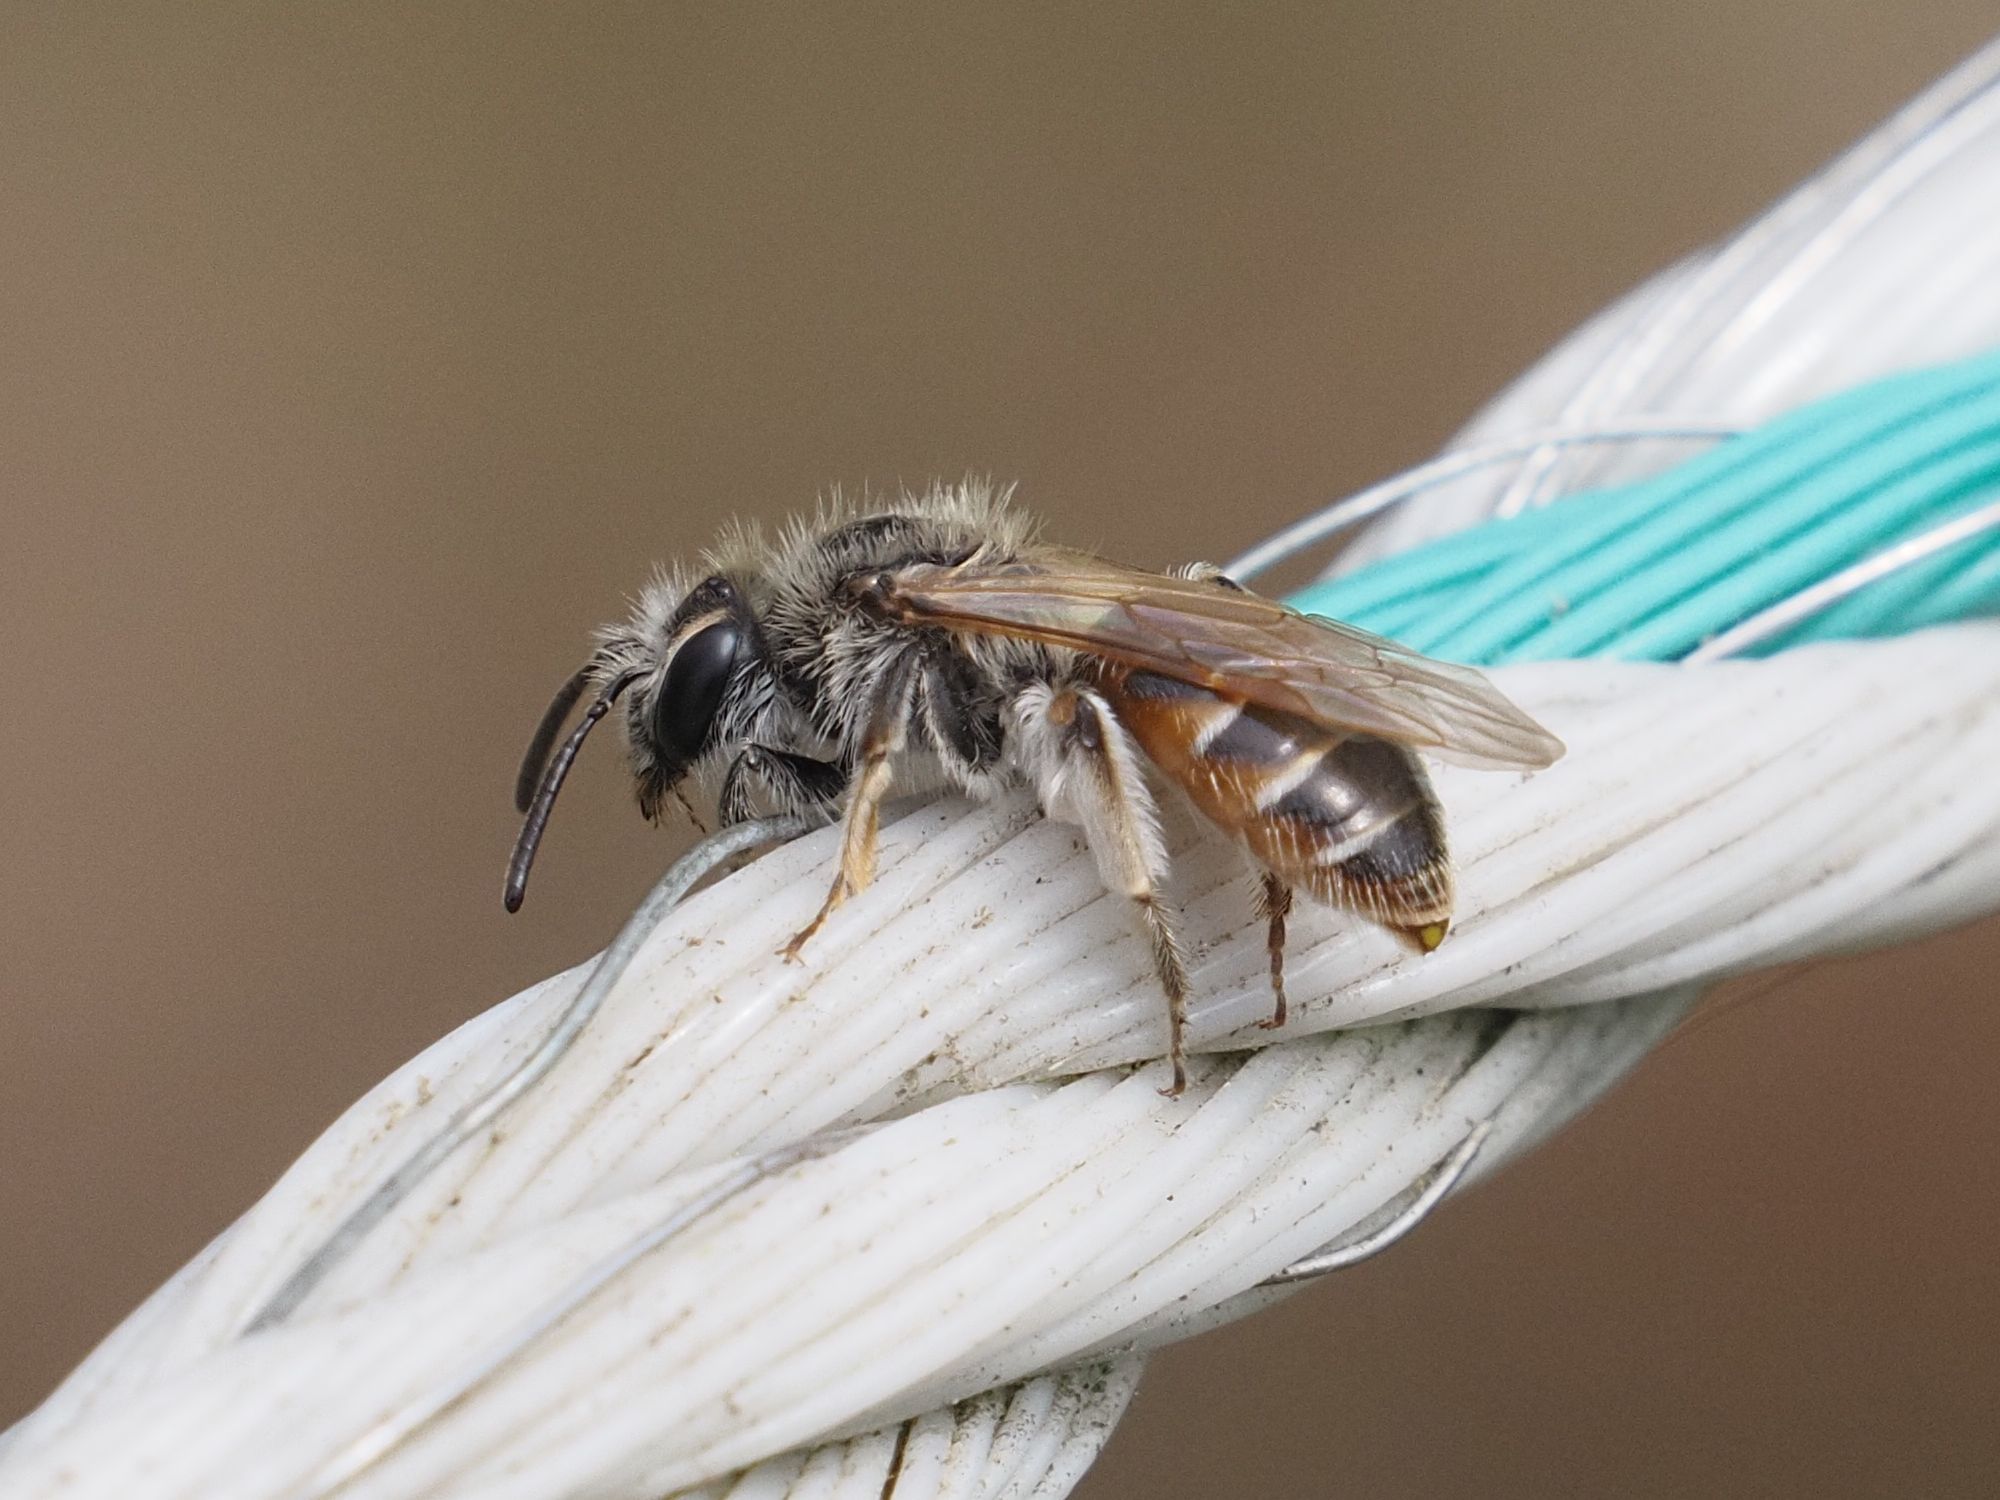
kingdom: Animalia
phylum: Arthropoda
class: Insecta
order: Hymenoptera
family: Andrenidae
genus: Andrena
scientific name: Andrena ventralis
